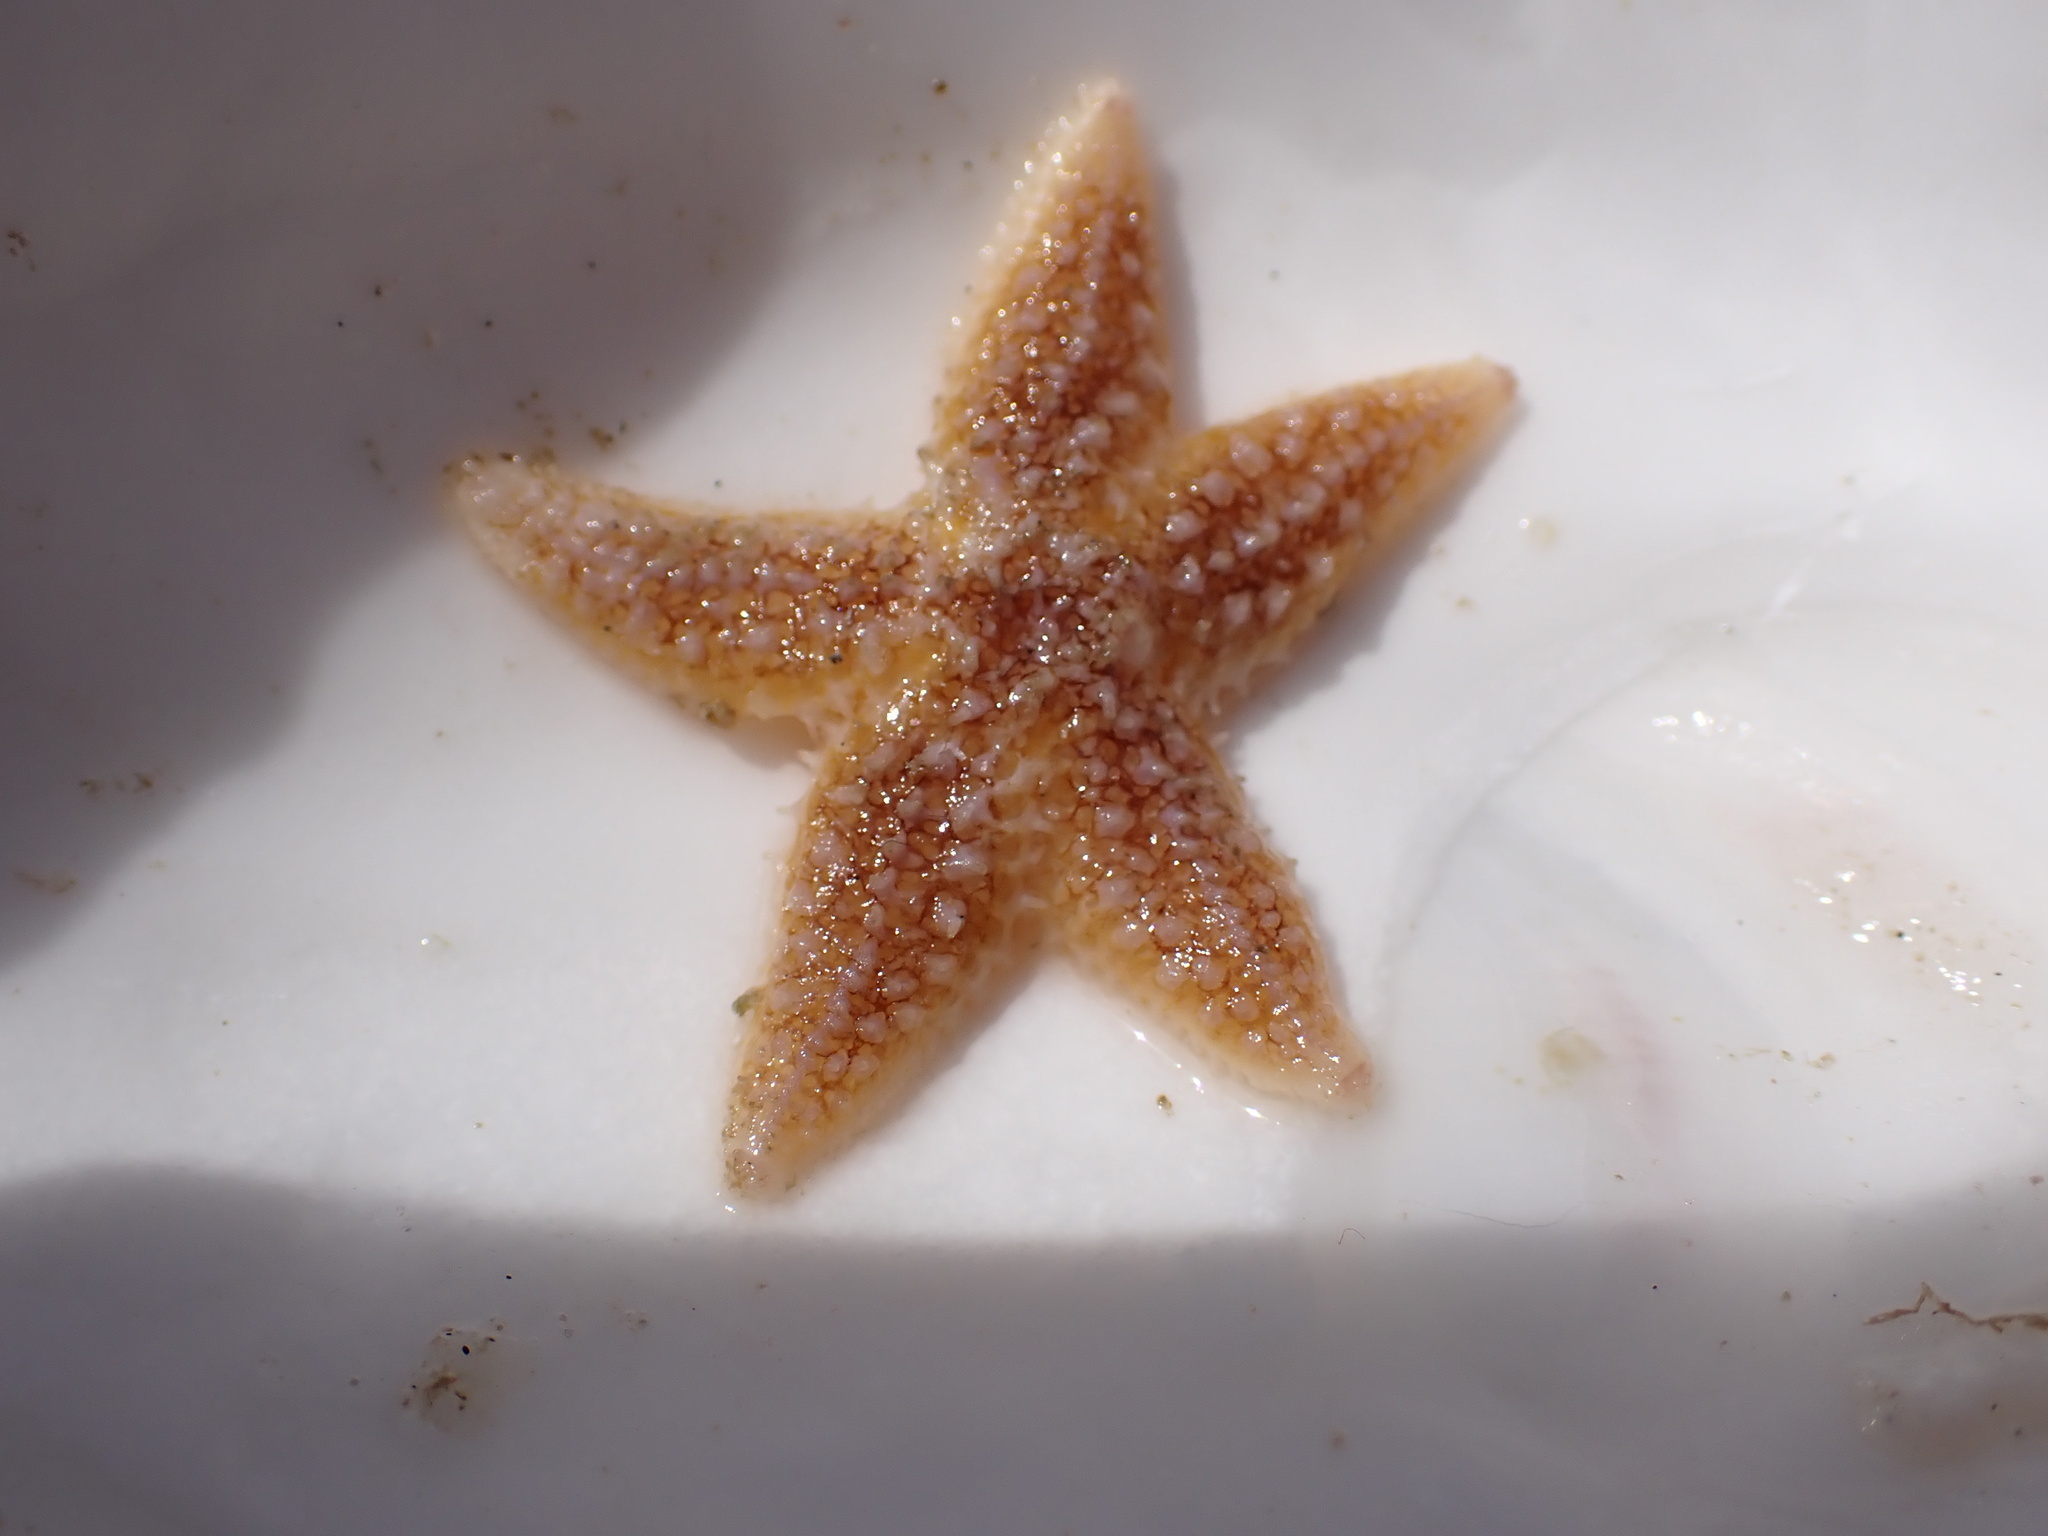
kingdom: Animalia
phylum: Echinodermata
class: Asteroidea
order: Forcipulatida
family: Asteriidae
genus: Asterias
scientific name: Asterias rubens
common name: Common starfish
